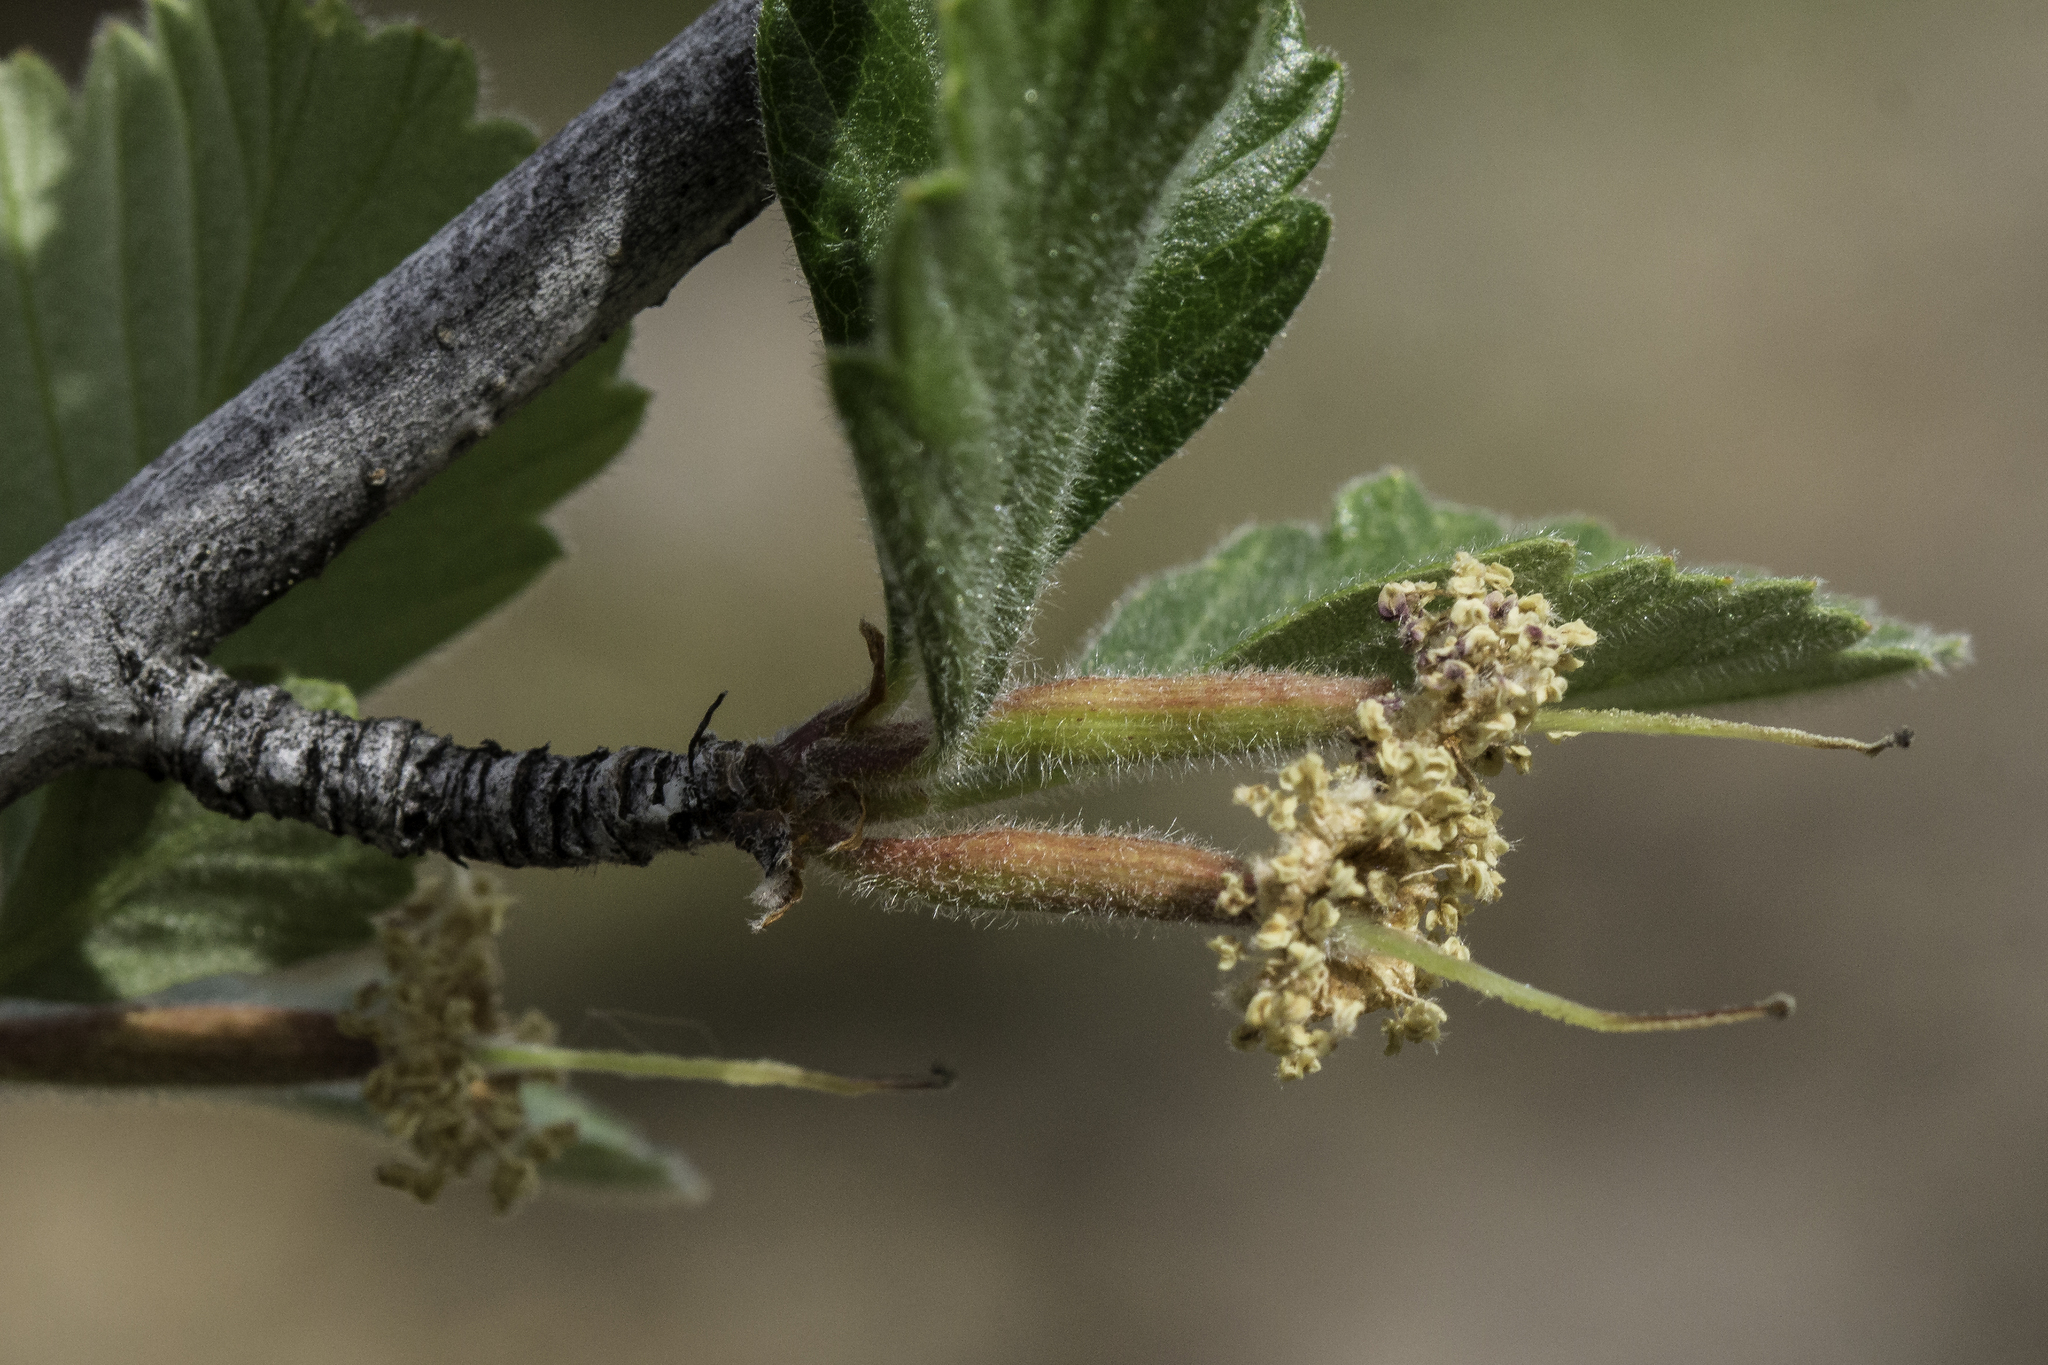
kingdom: Plantae
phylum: Tracheophyta
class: Magnoliopsida
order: Rosales
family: Rosaceae
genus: Cercocarpus
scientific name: Cercocarpus montanus
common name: Alder-leaf cercocarpus
